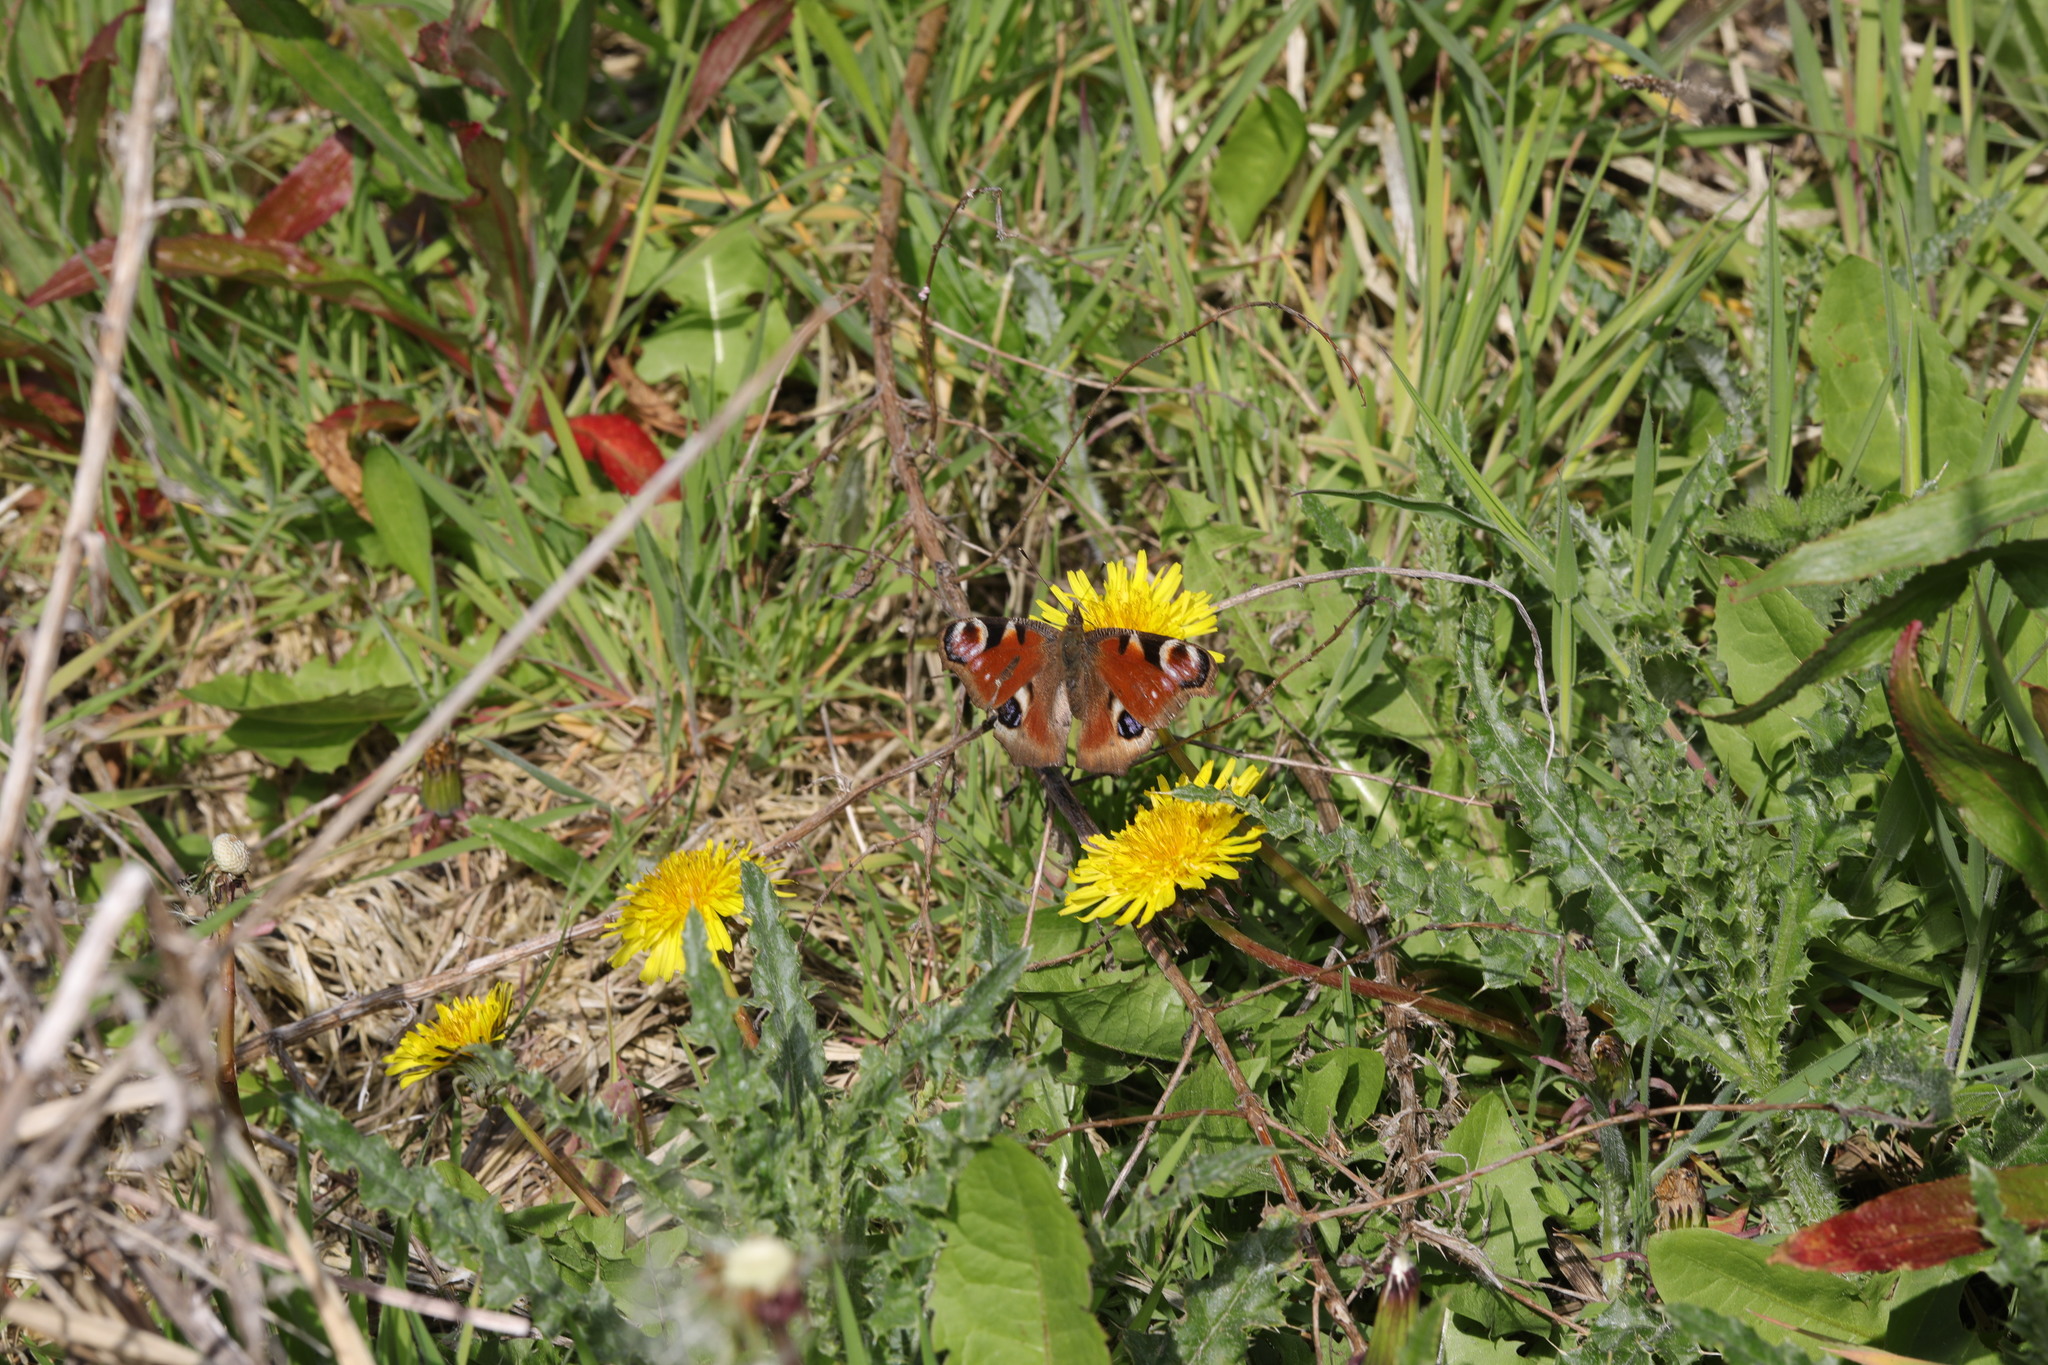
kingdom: Animalia
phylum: Arthropoda
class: Insecta
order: Lepidoptera
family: Nymphalidae
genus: Aglais
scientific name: Aglais io
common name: Peacock
